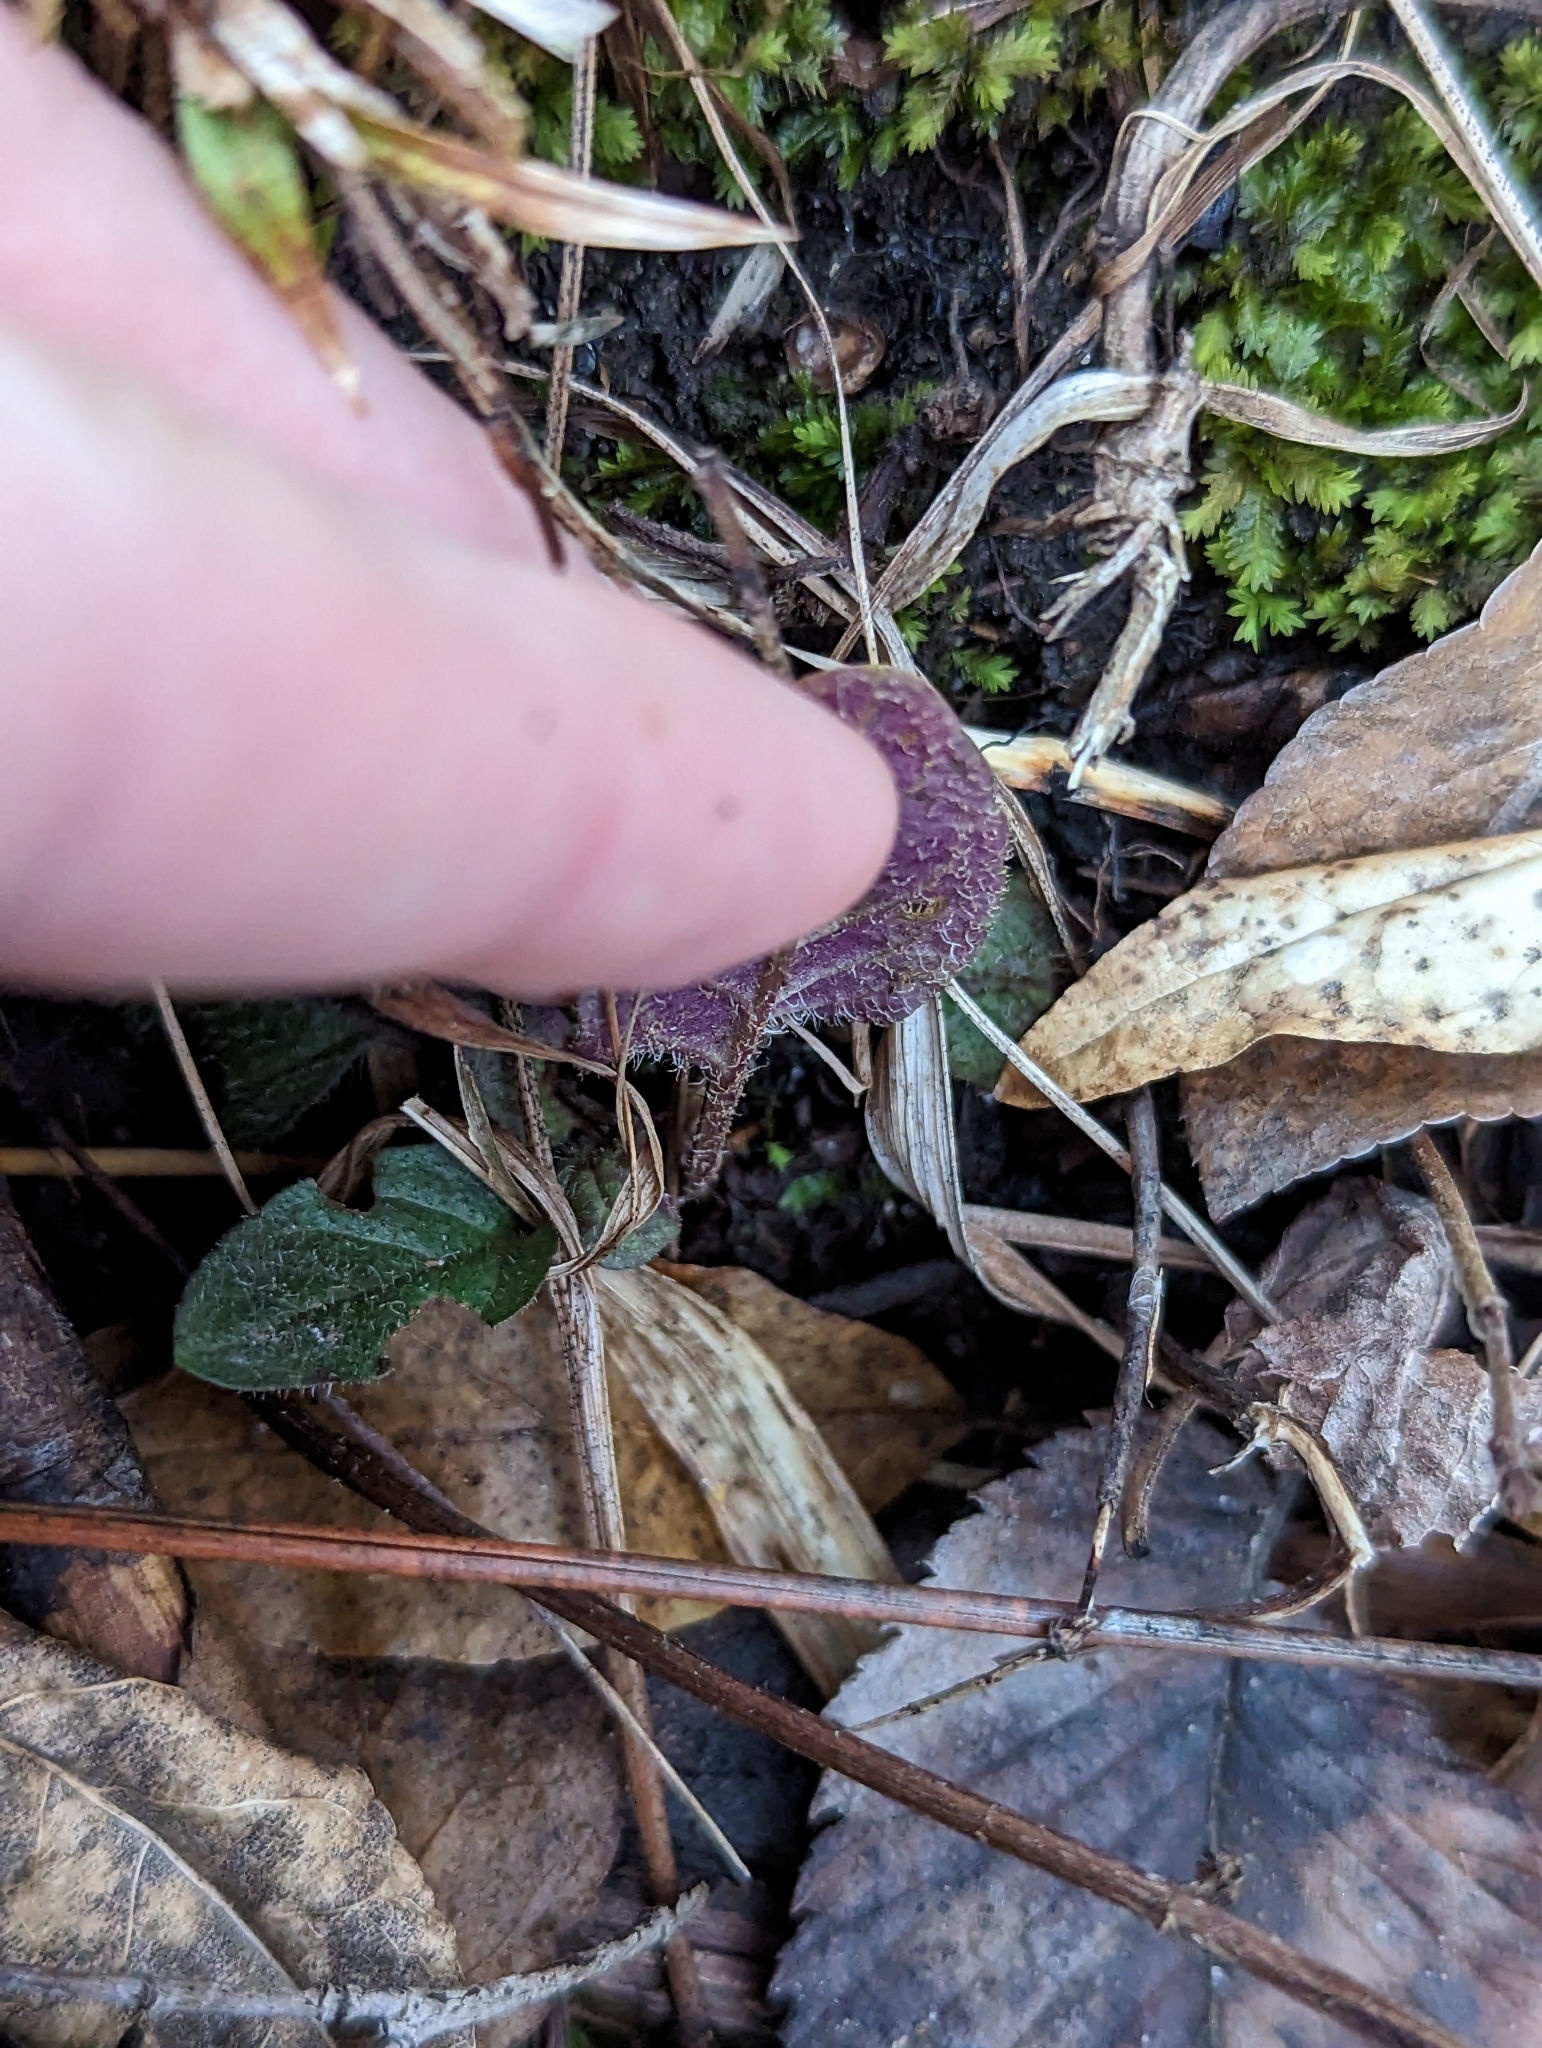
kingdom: Plantae
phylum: Tracheophyta
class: Magnoliopsida
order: Lamiales
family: Lamiaceae
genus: Prunella
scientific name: Prunella vulgaris
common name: Heal-all
